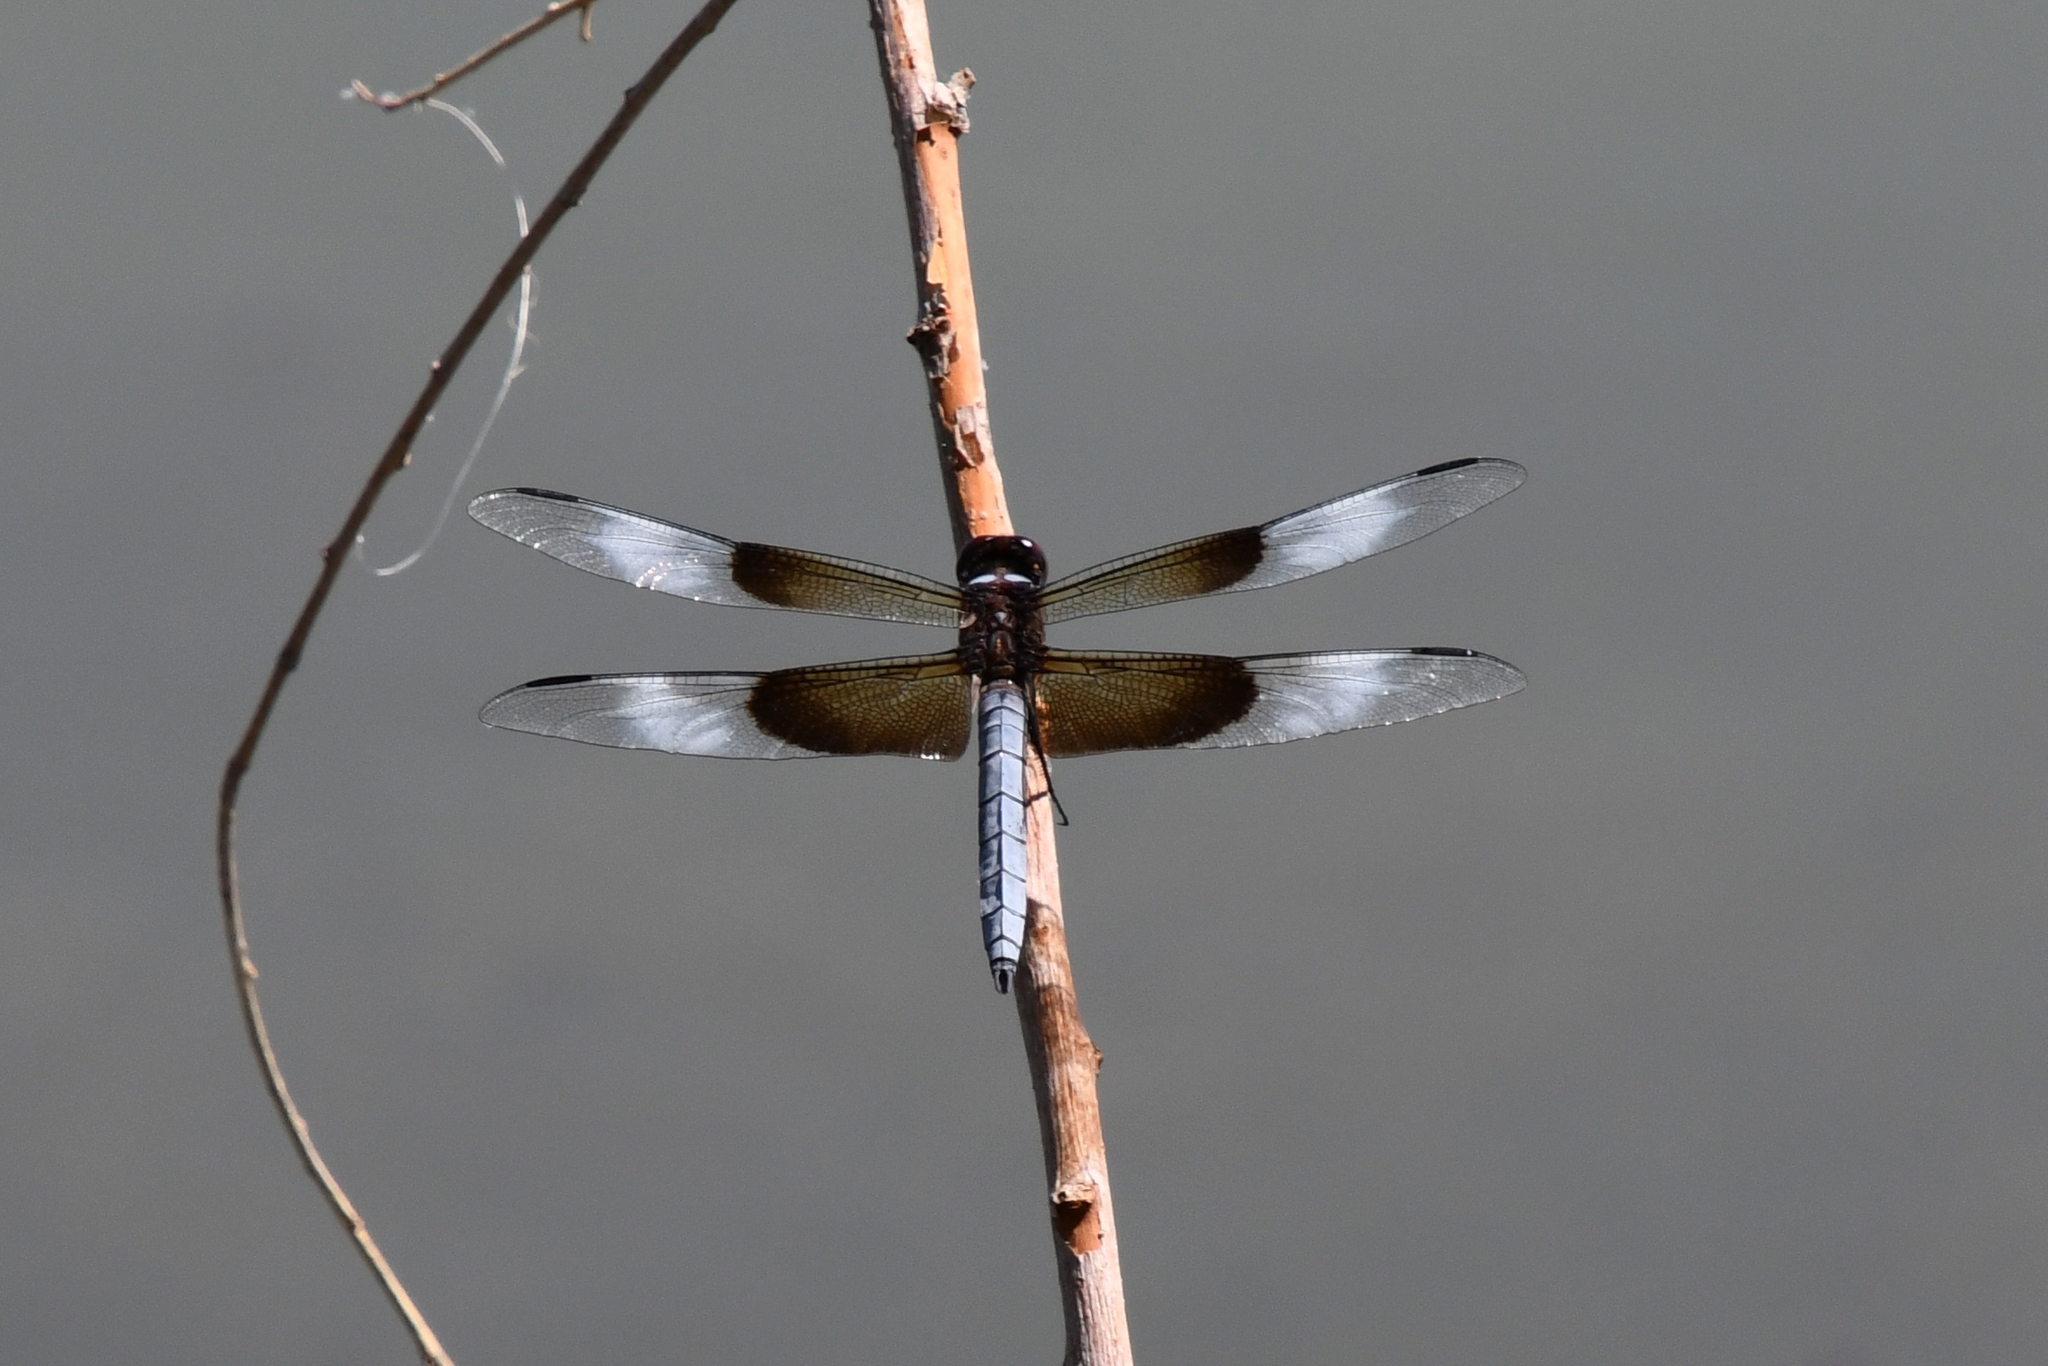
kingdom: Animalia
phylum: Arthropoda
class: Insecta
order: Odonata
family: Libellulidae
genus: Libellula
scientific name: Libellula luctuosa
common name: Widow skimmer
